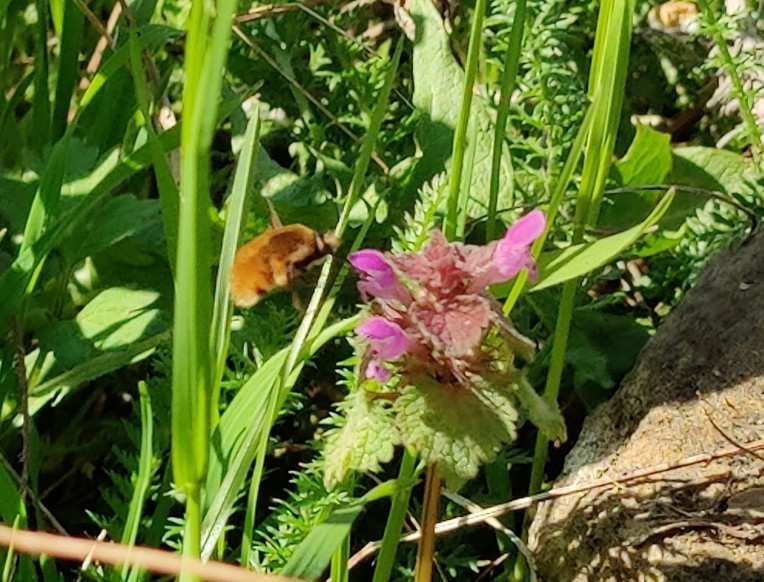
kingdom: Animalia
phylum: Arthropoda
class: Insecta
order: Diptera
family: Bombyliidae
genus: Bombylius
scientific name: Bombylius major
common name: Bee fly
